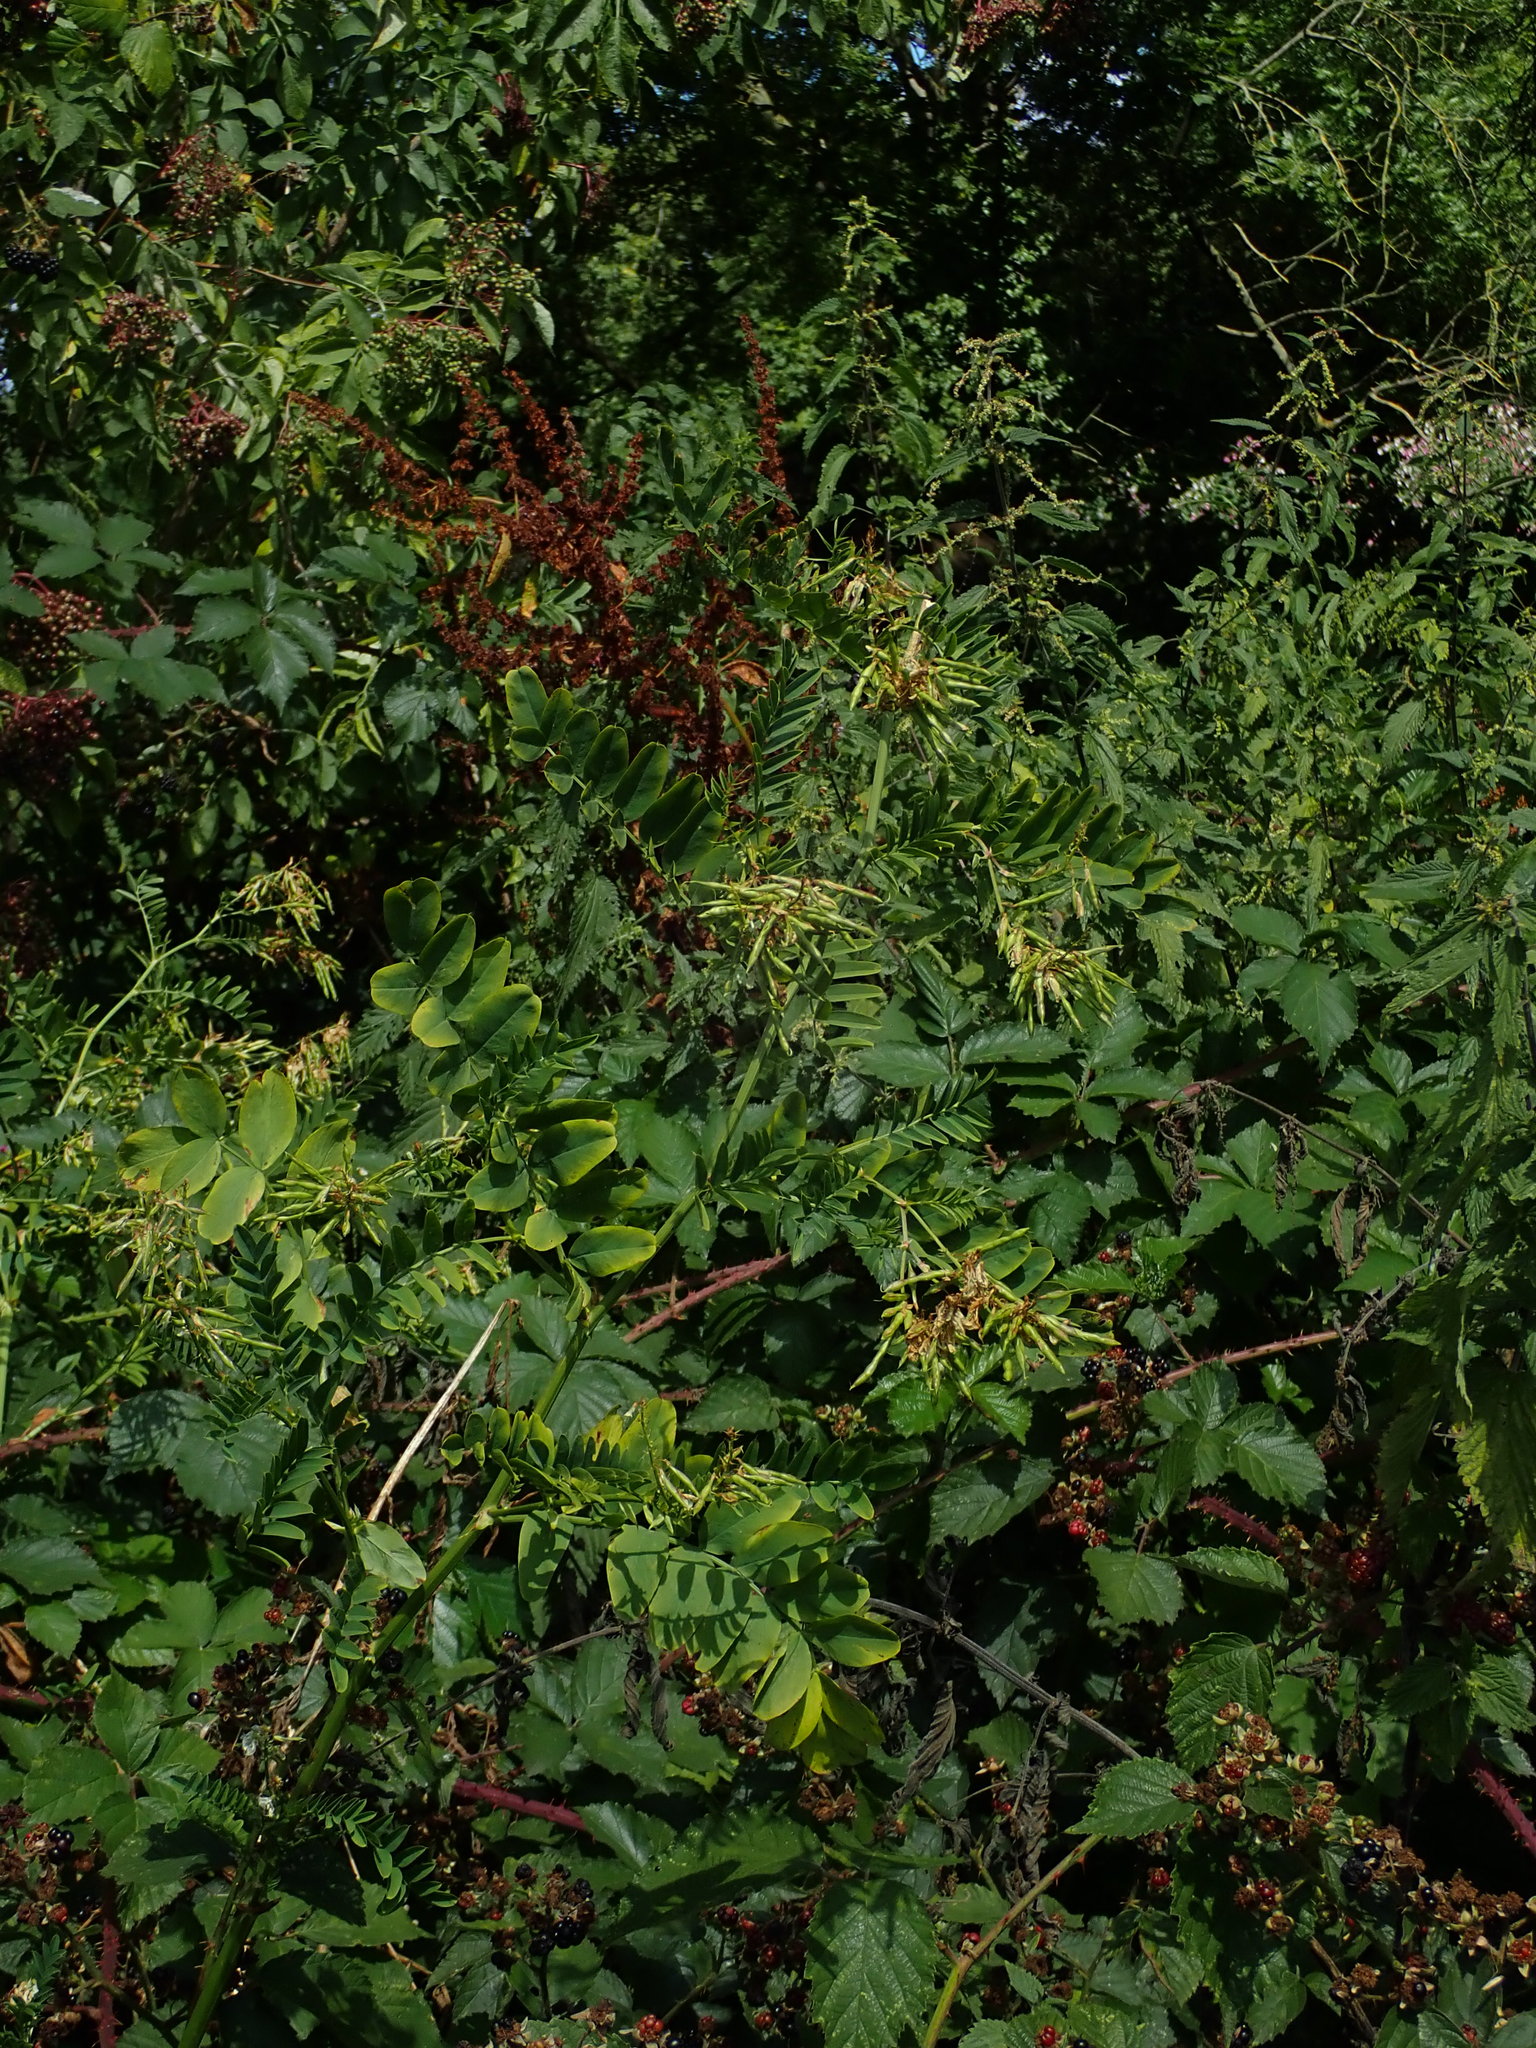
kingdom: Plantae
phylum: Tracheophyta
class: Magnoliopsida
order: Fabales
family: Fabaceae
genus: Galega
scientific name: Galega officinalis
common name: Goat's-rue
